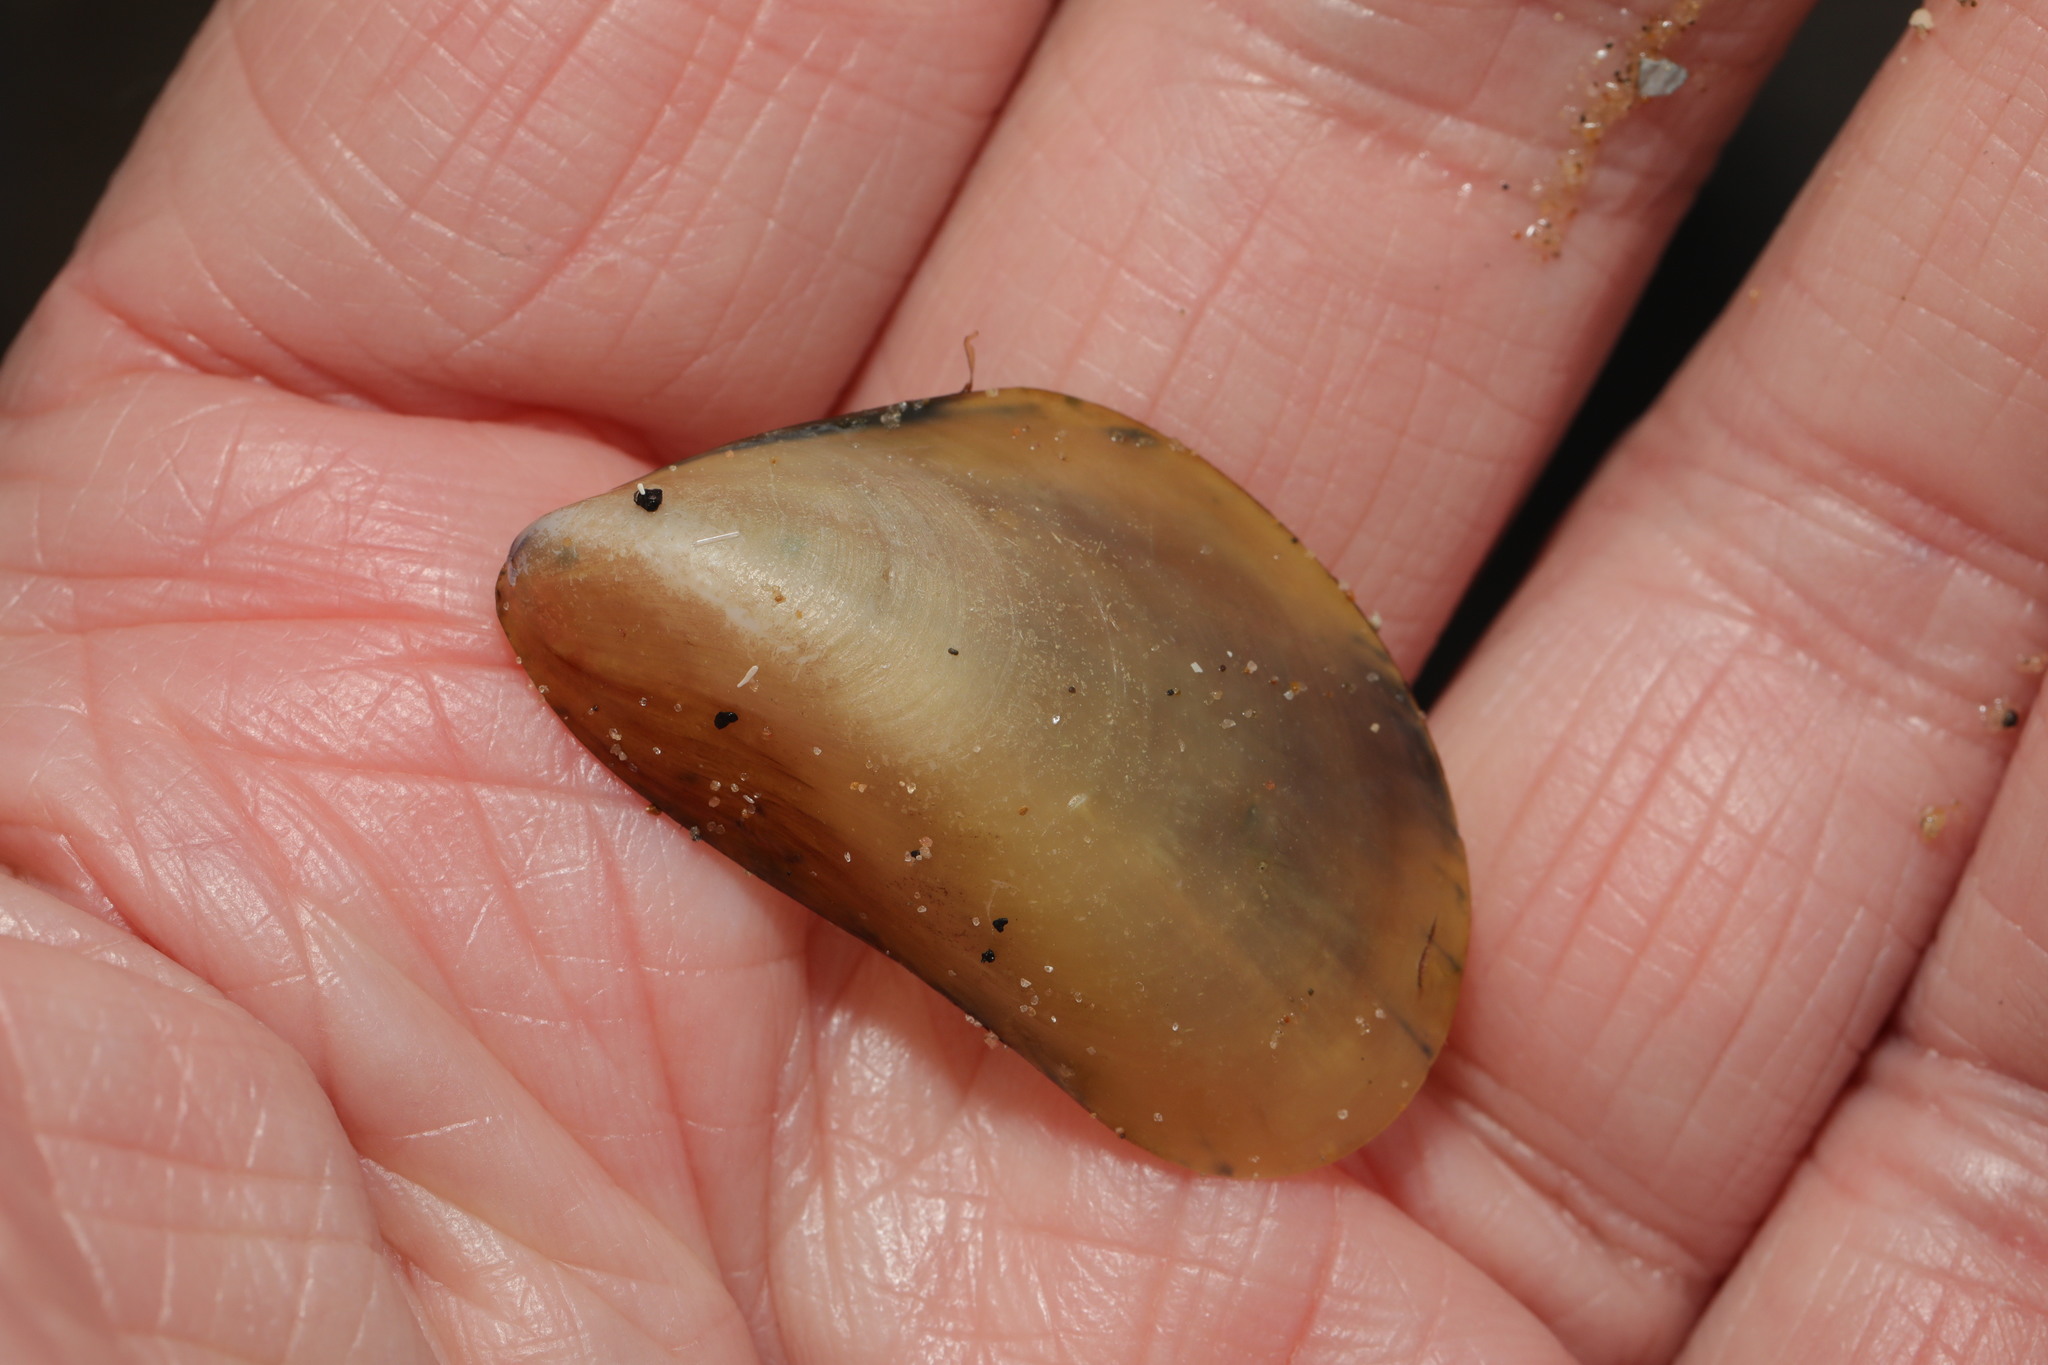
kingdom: Animalia
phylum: Mollusca
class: Bivalvia
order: Mytilida
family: Mytilidae
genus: Mytilus
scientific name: Mytilus edulis
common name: Blue mussel
